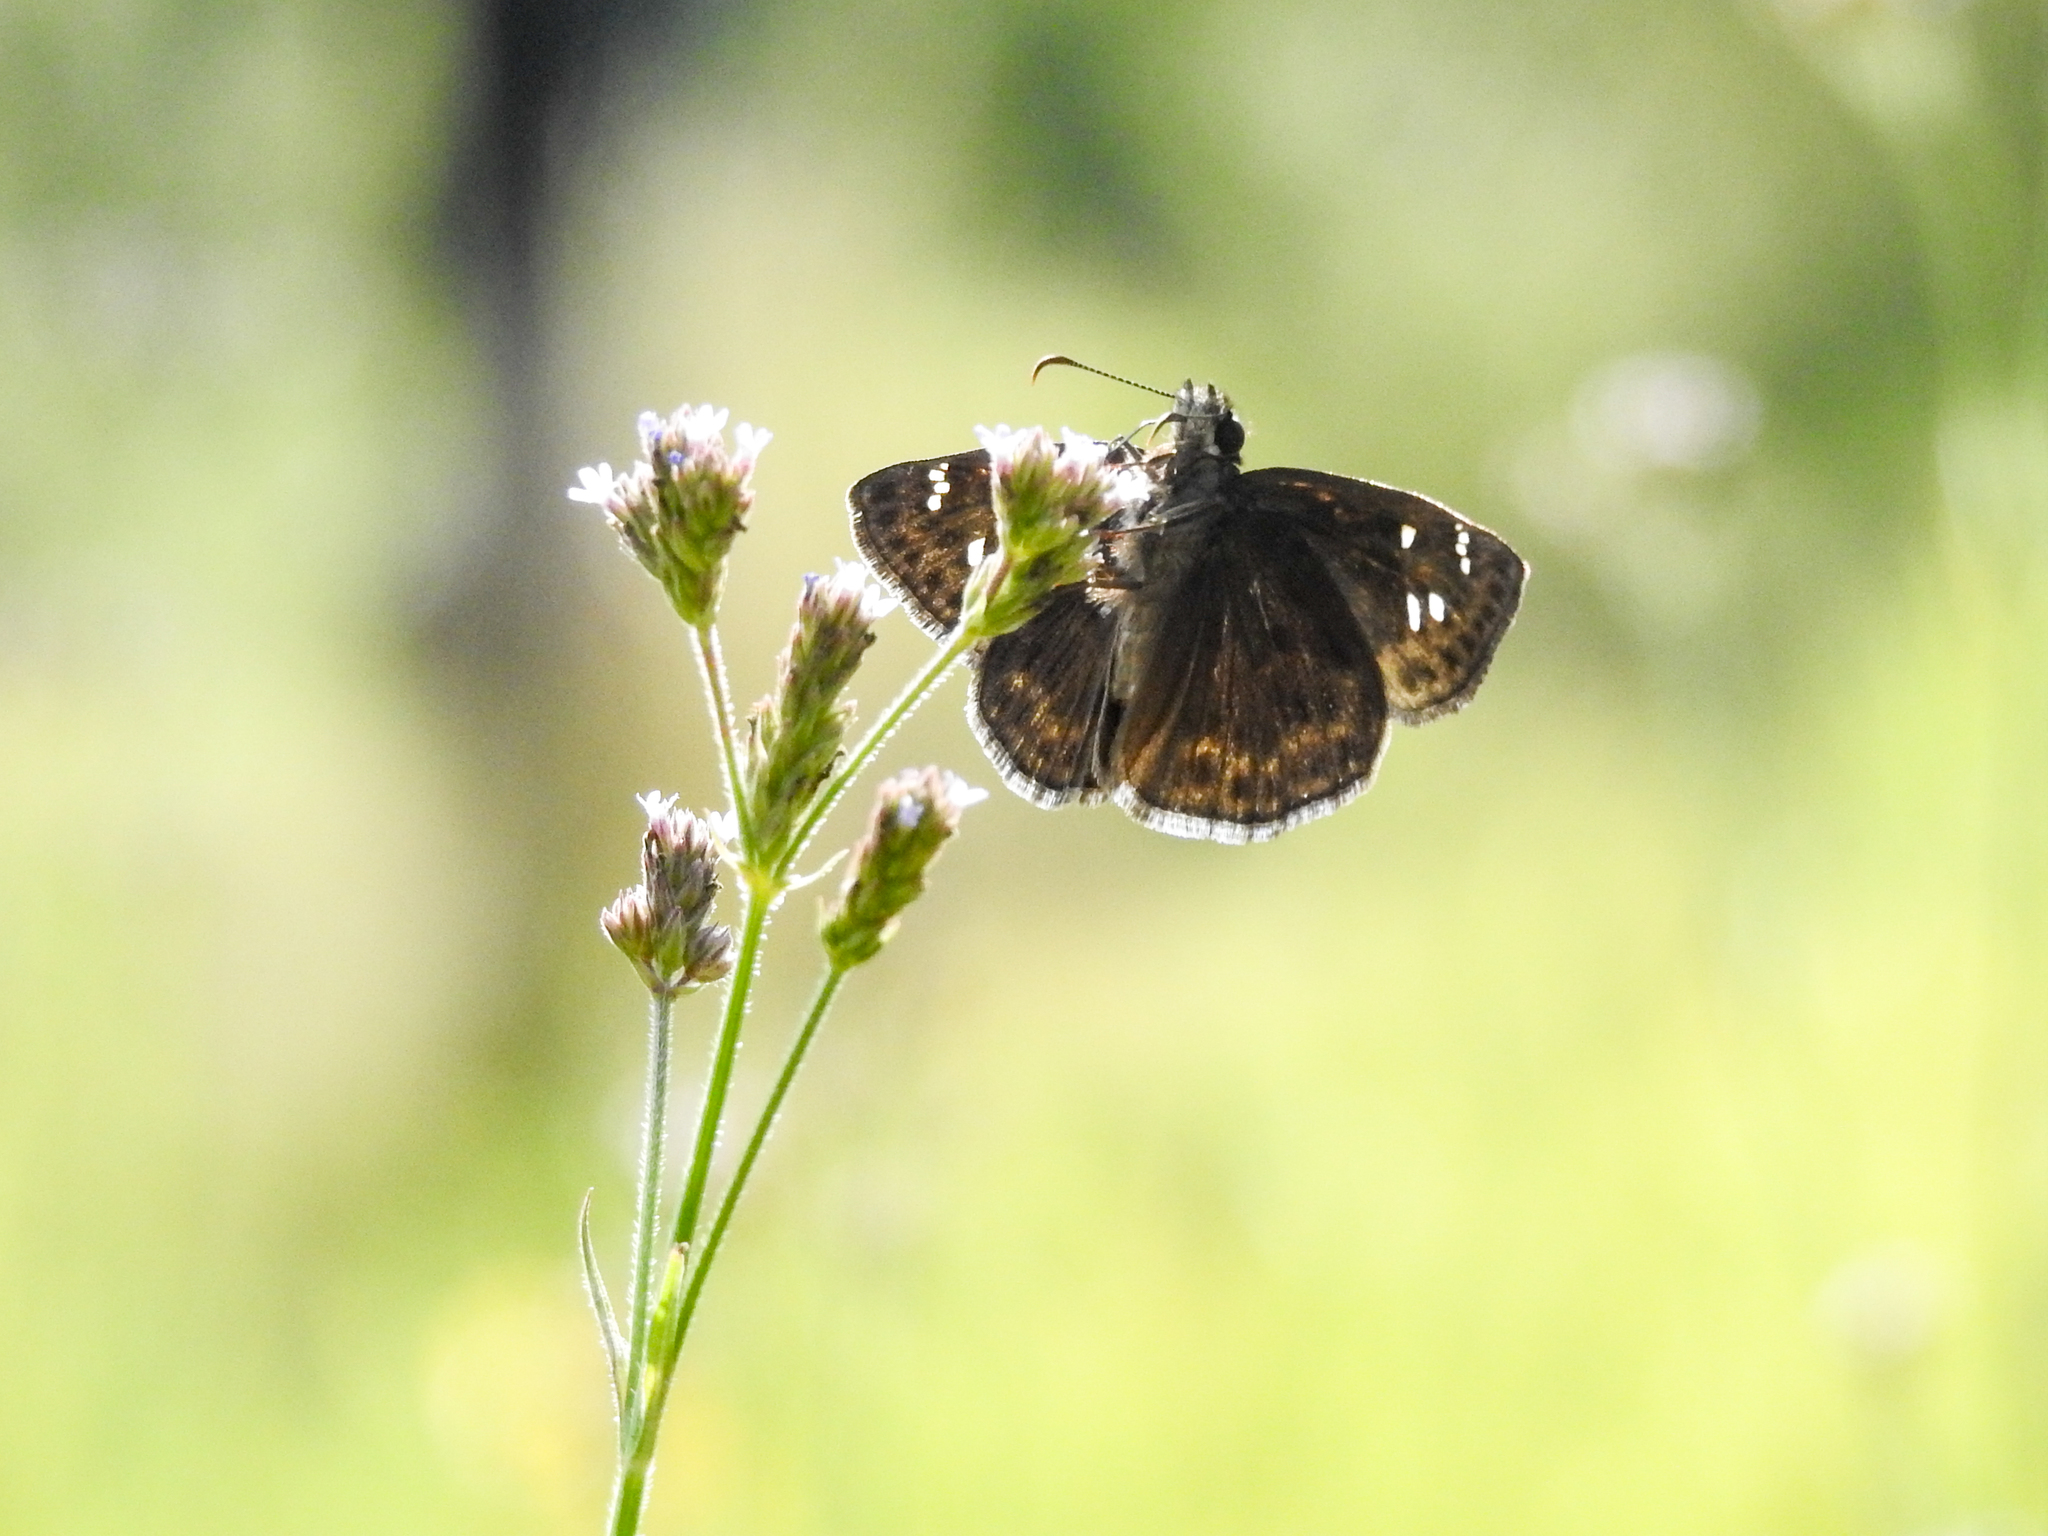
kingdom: Animalia
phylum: Arthropoda
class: Insecta
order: Lepidoptera
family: Hesperiidae
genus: Erynnis
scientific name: Erynnis horatius
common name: Horace's duskywing
